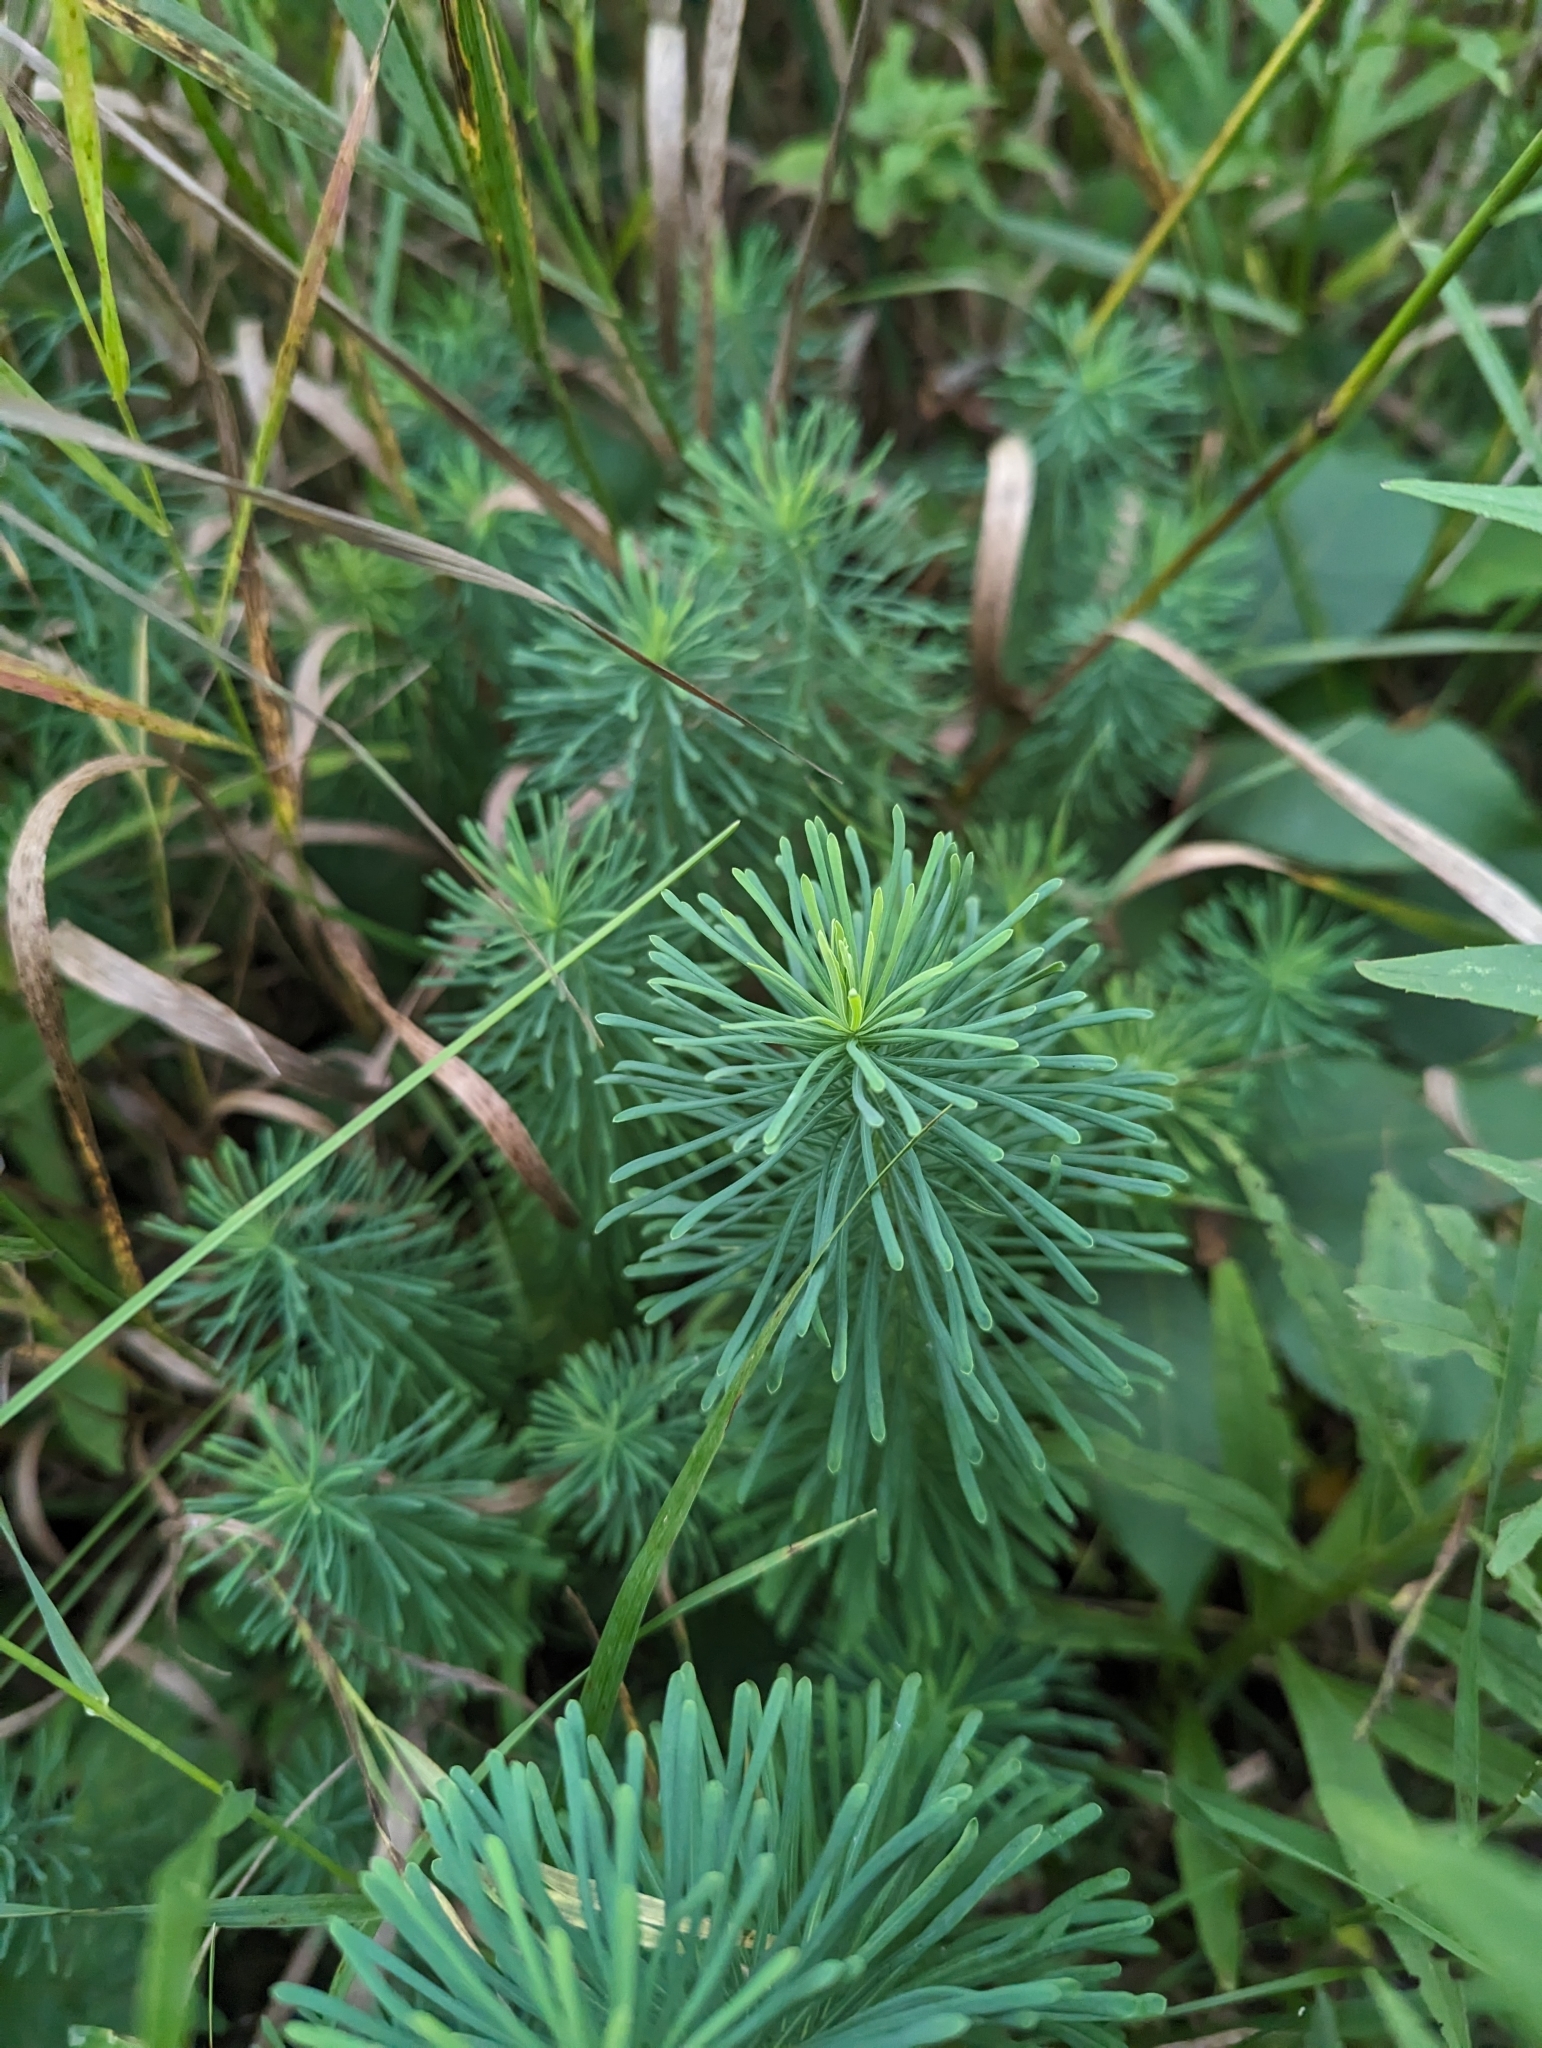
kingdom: Plantae
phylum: Tracheophyta
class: Magnoliopsida
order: Malpighiales
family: Euphorbiaceae
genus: Euphorbia
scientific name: Euphorbia cyparissias
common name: Cypress spurge
